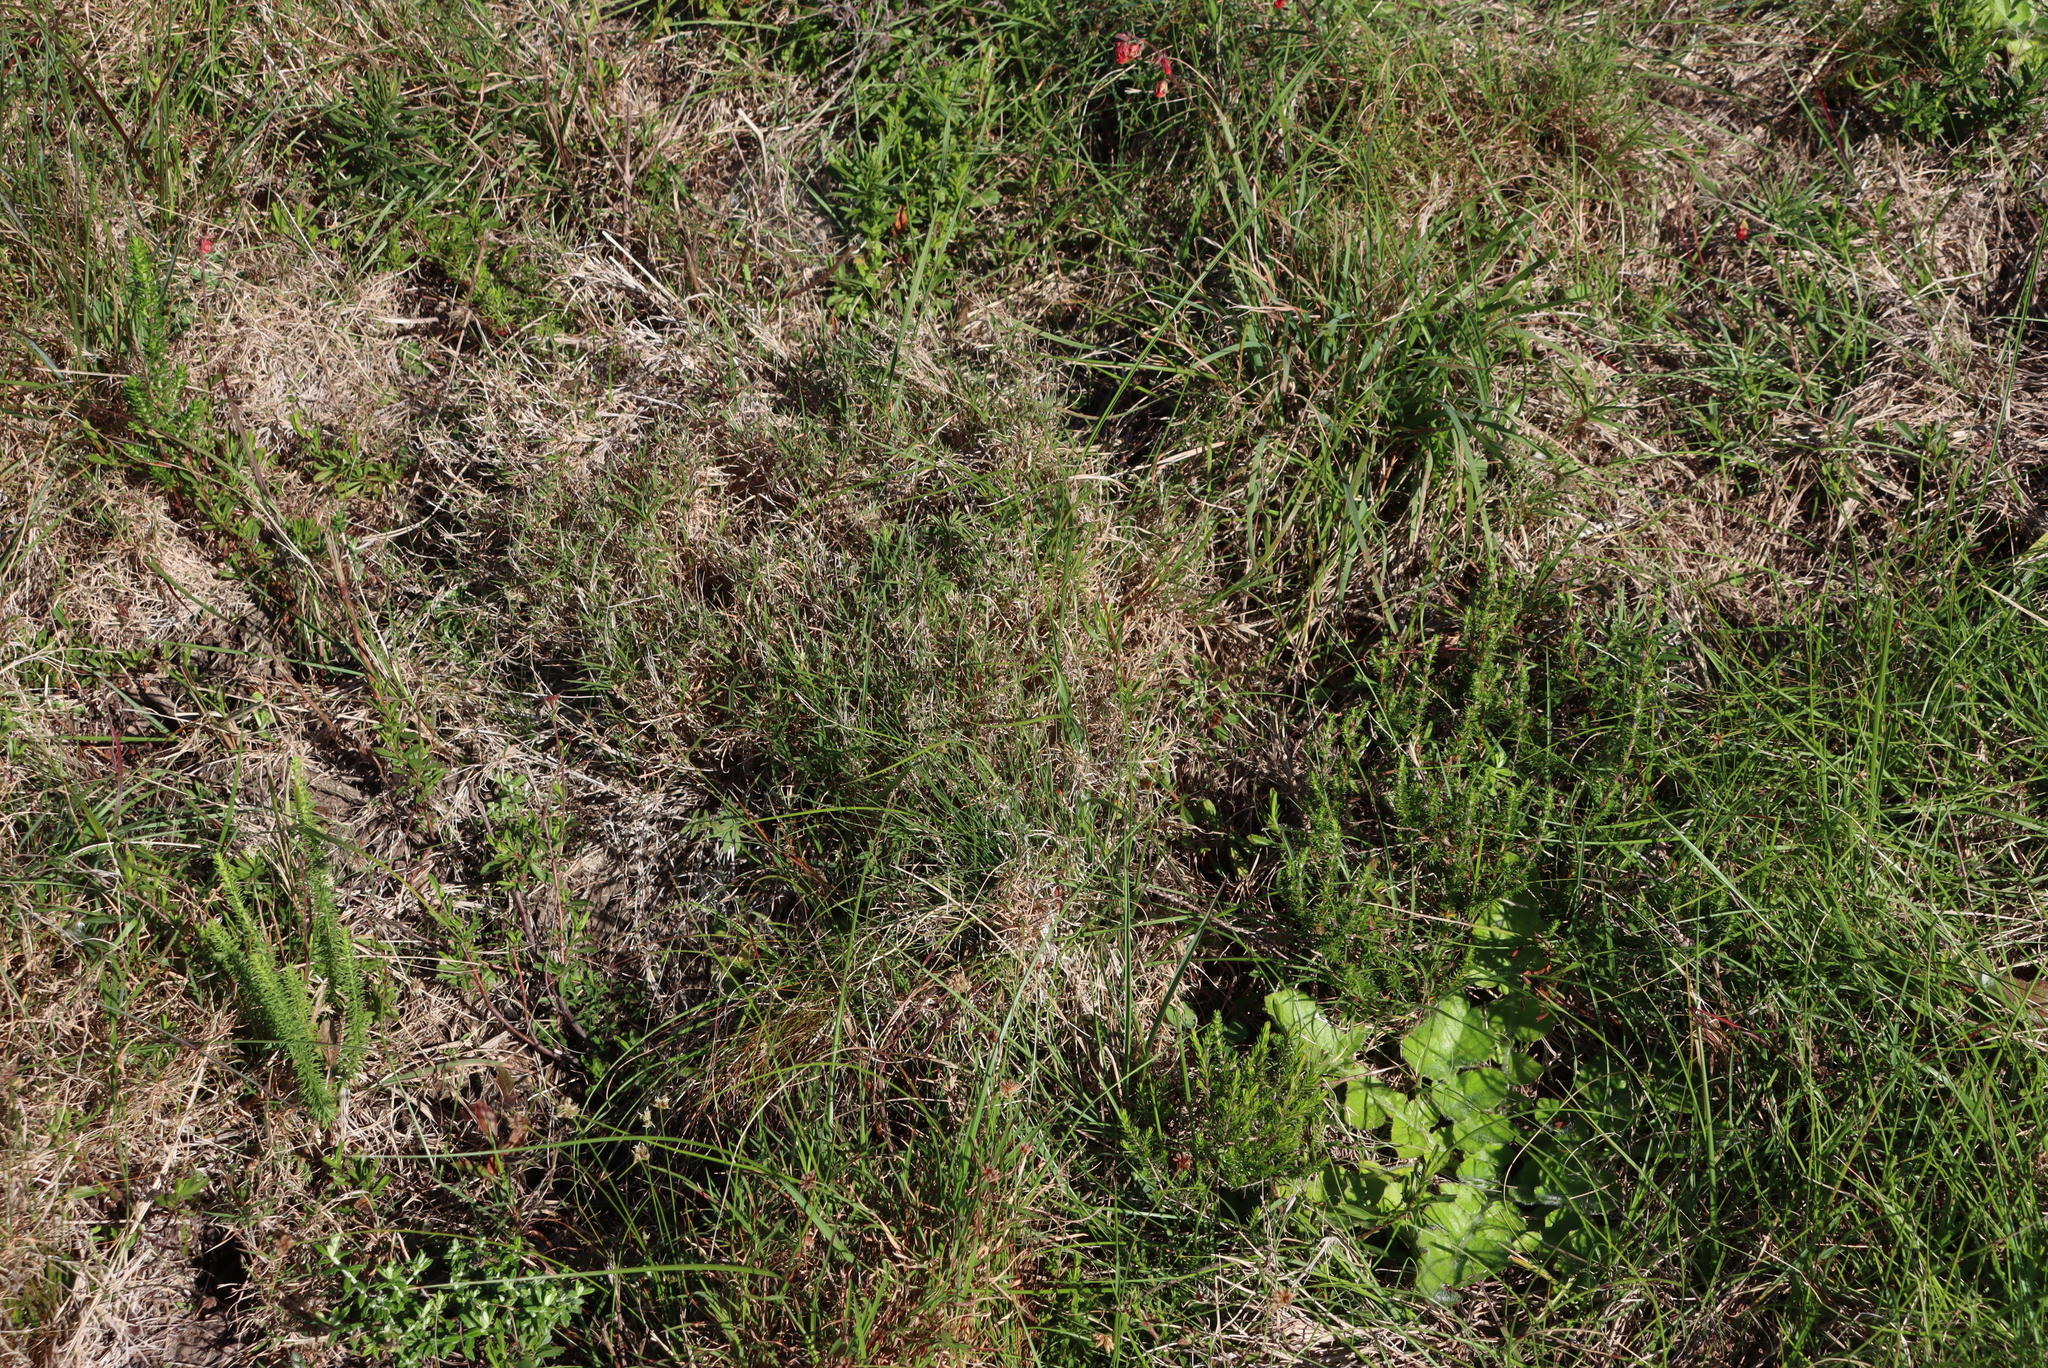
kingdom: Plantae
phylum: Tracheophyta
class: Liliopsida
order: Poales
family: Poaceae
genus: Cynodon
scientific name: Cynodon dactylon
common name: Bermuda grass
